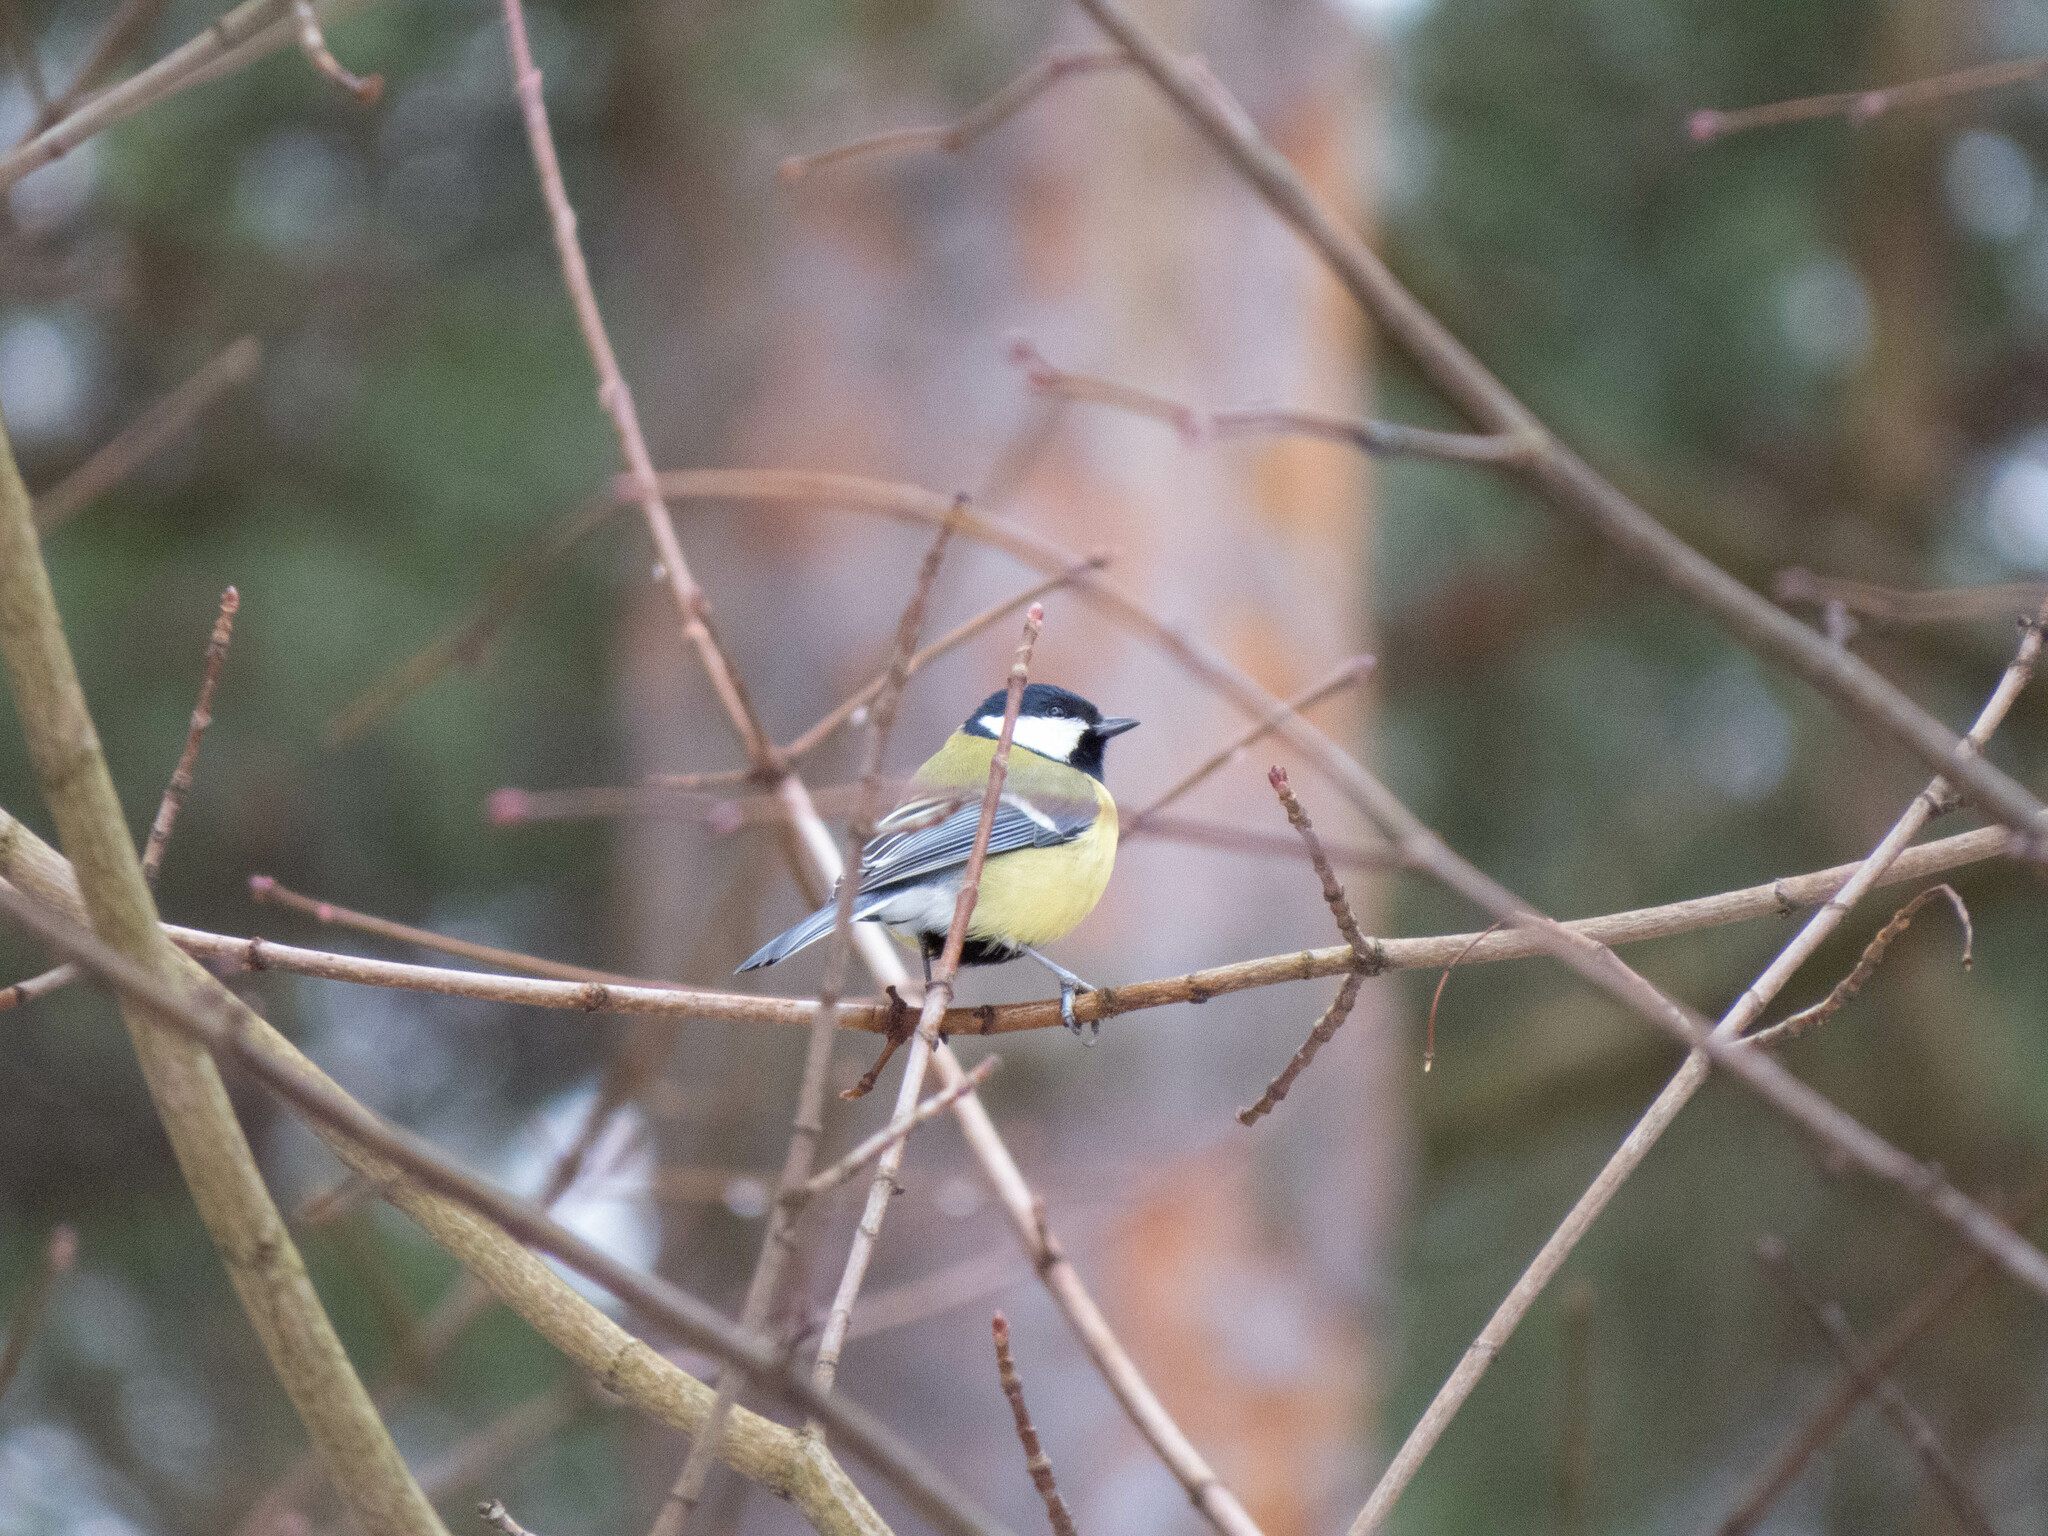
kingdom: Animalia
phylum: Chordata
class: Aves
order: Passeriformes
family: Paridae
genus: Parus
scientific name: Parus major
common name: Great tit
